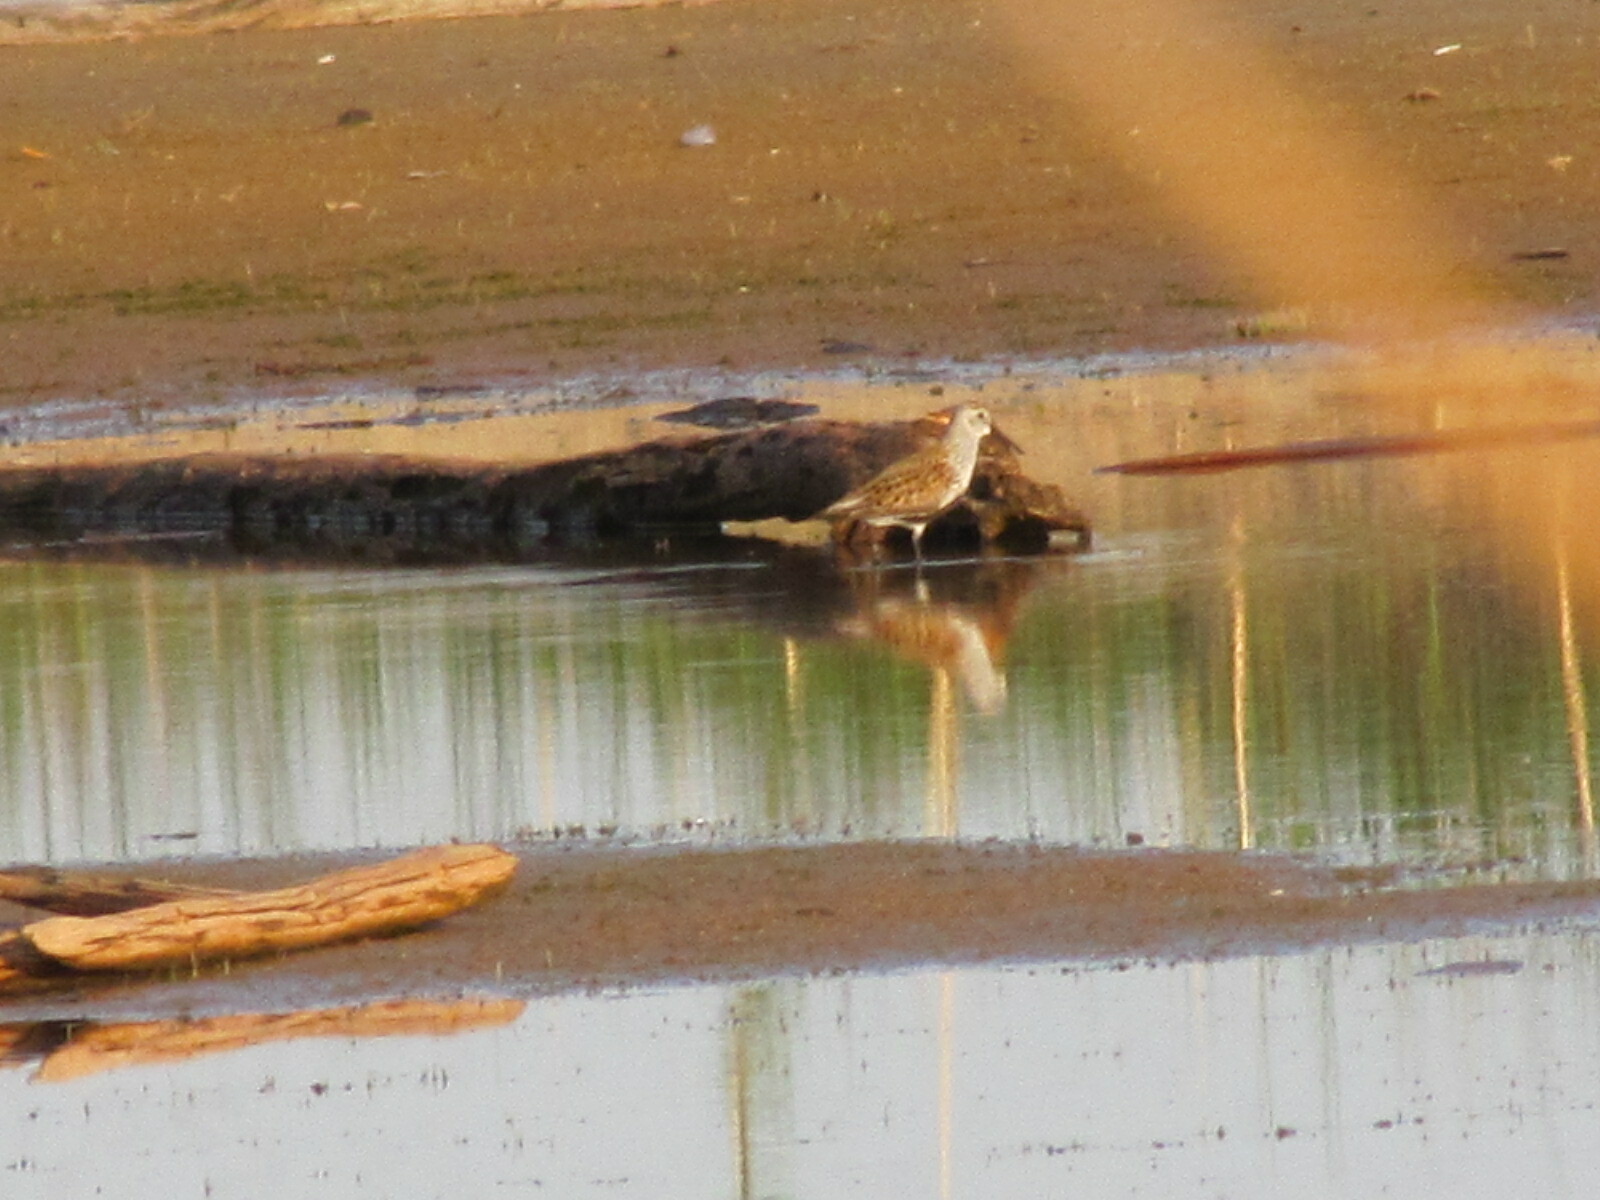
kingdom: Animalia
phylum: Chordata
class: Aves
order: Charadriiformes
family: Scolopacidae
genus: Calidris
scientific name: Calidris alpina
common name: Dunlin
